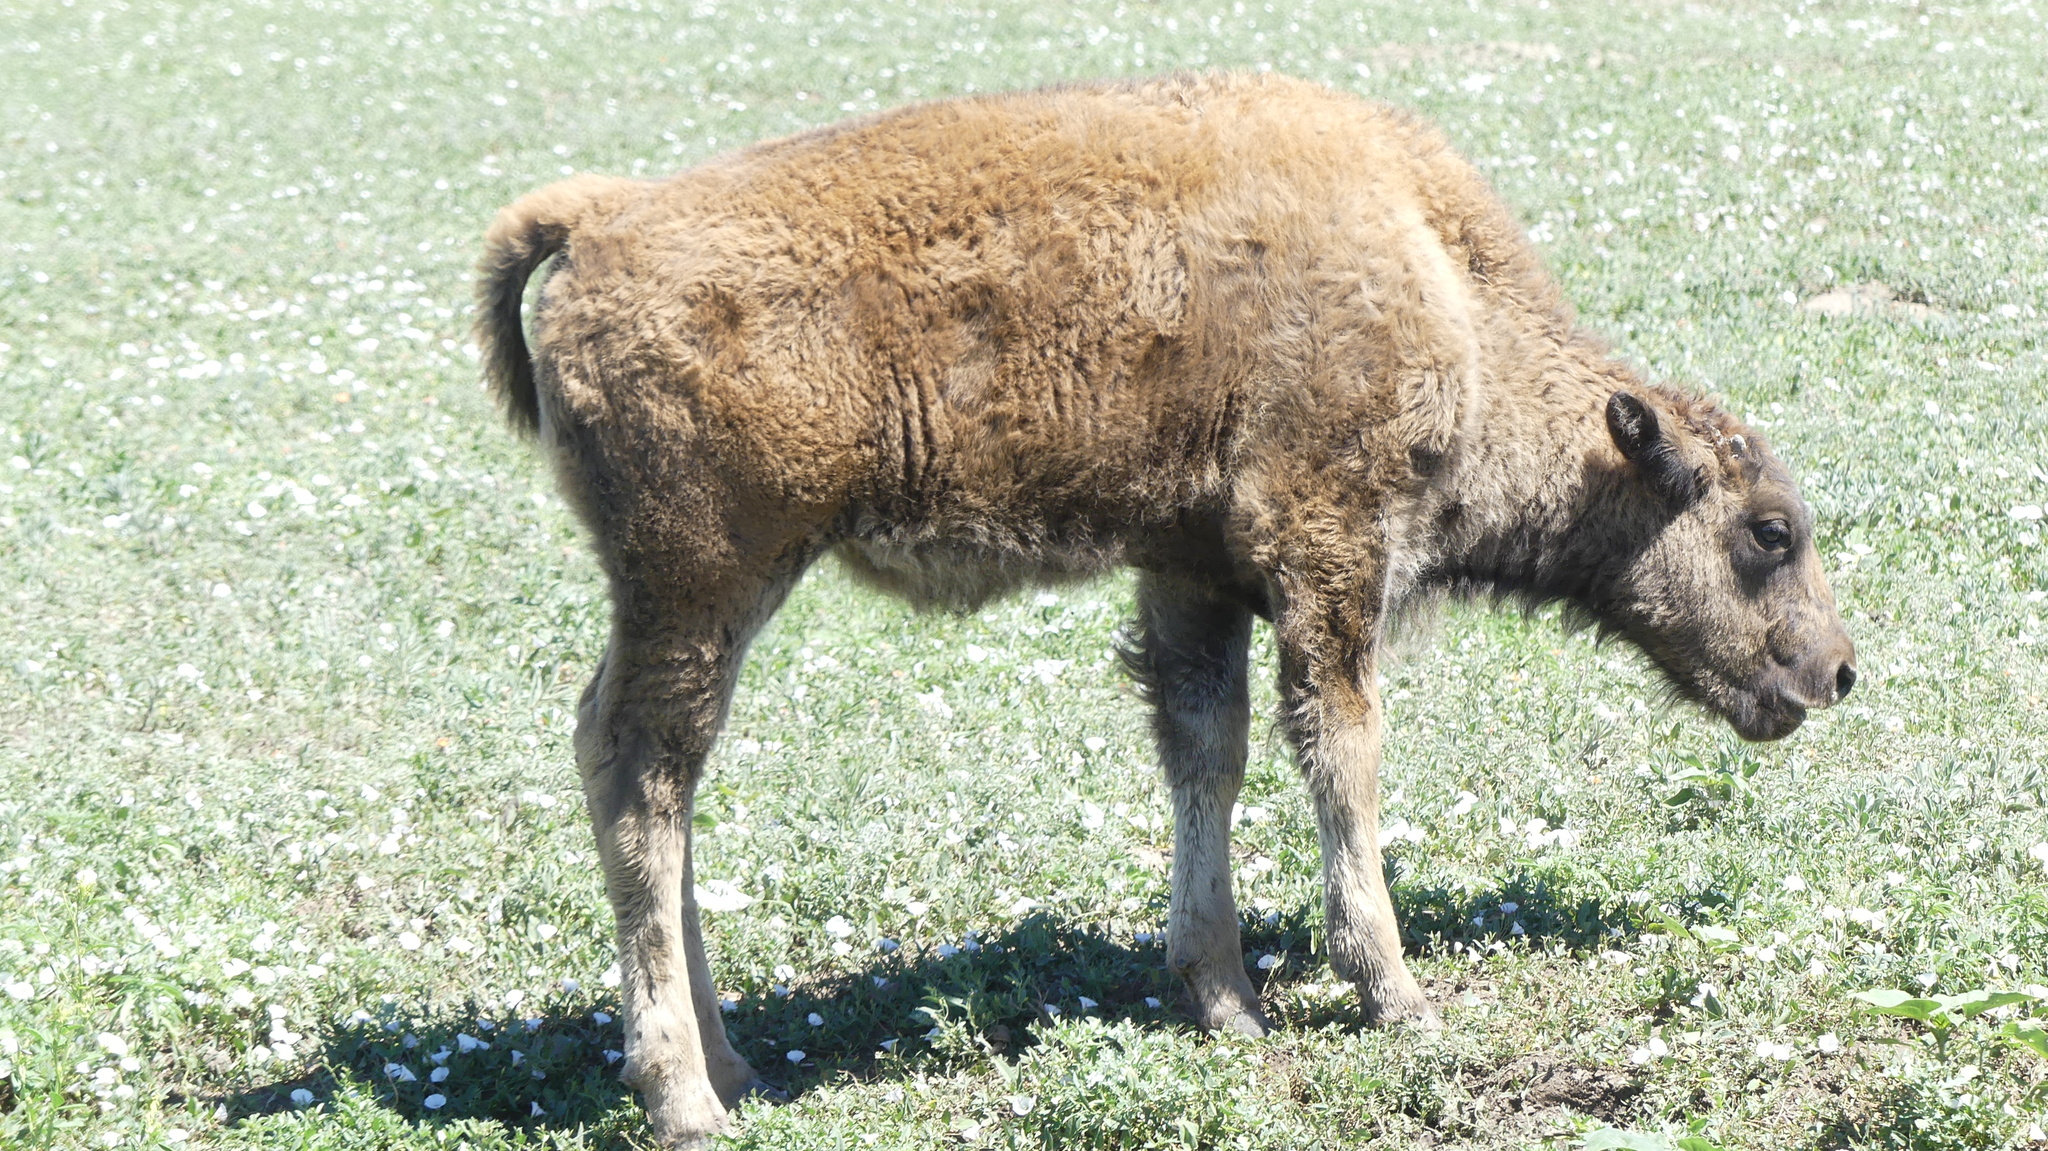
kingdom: Animalia
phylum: Chordata
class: Mammalia
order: Artiodactyla
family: Bovidae
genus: Bison
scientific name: Bison bison
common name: American bison
